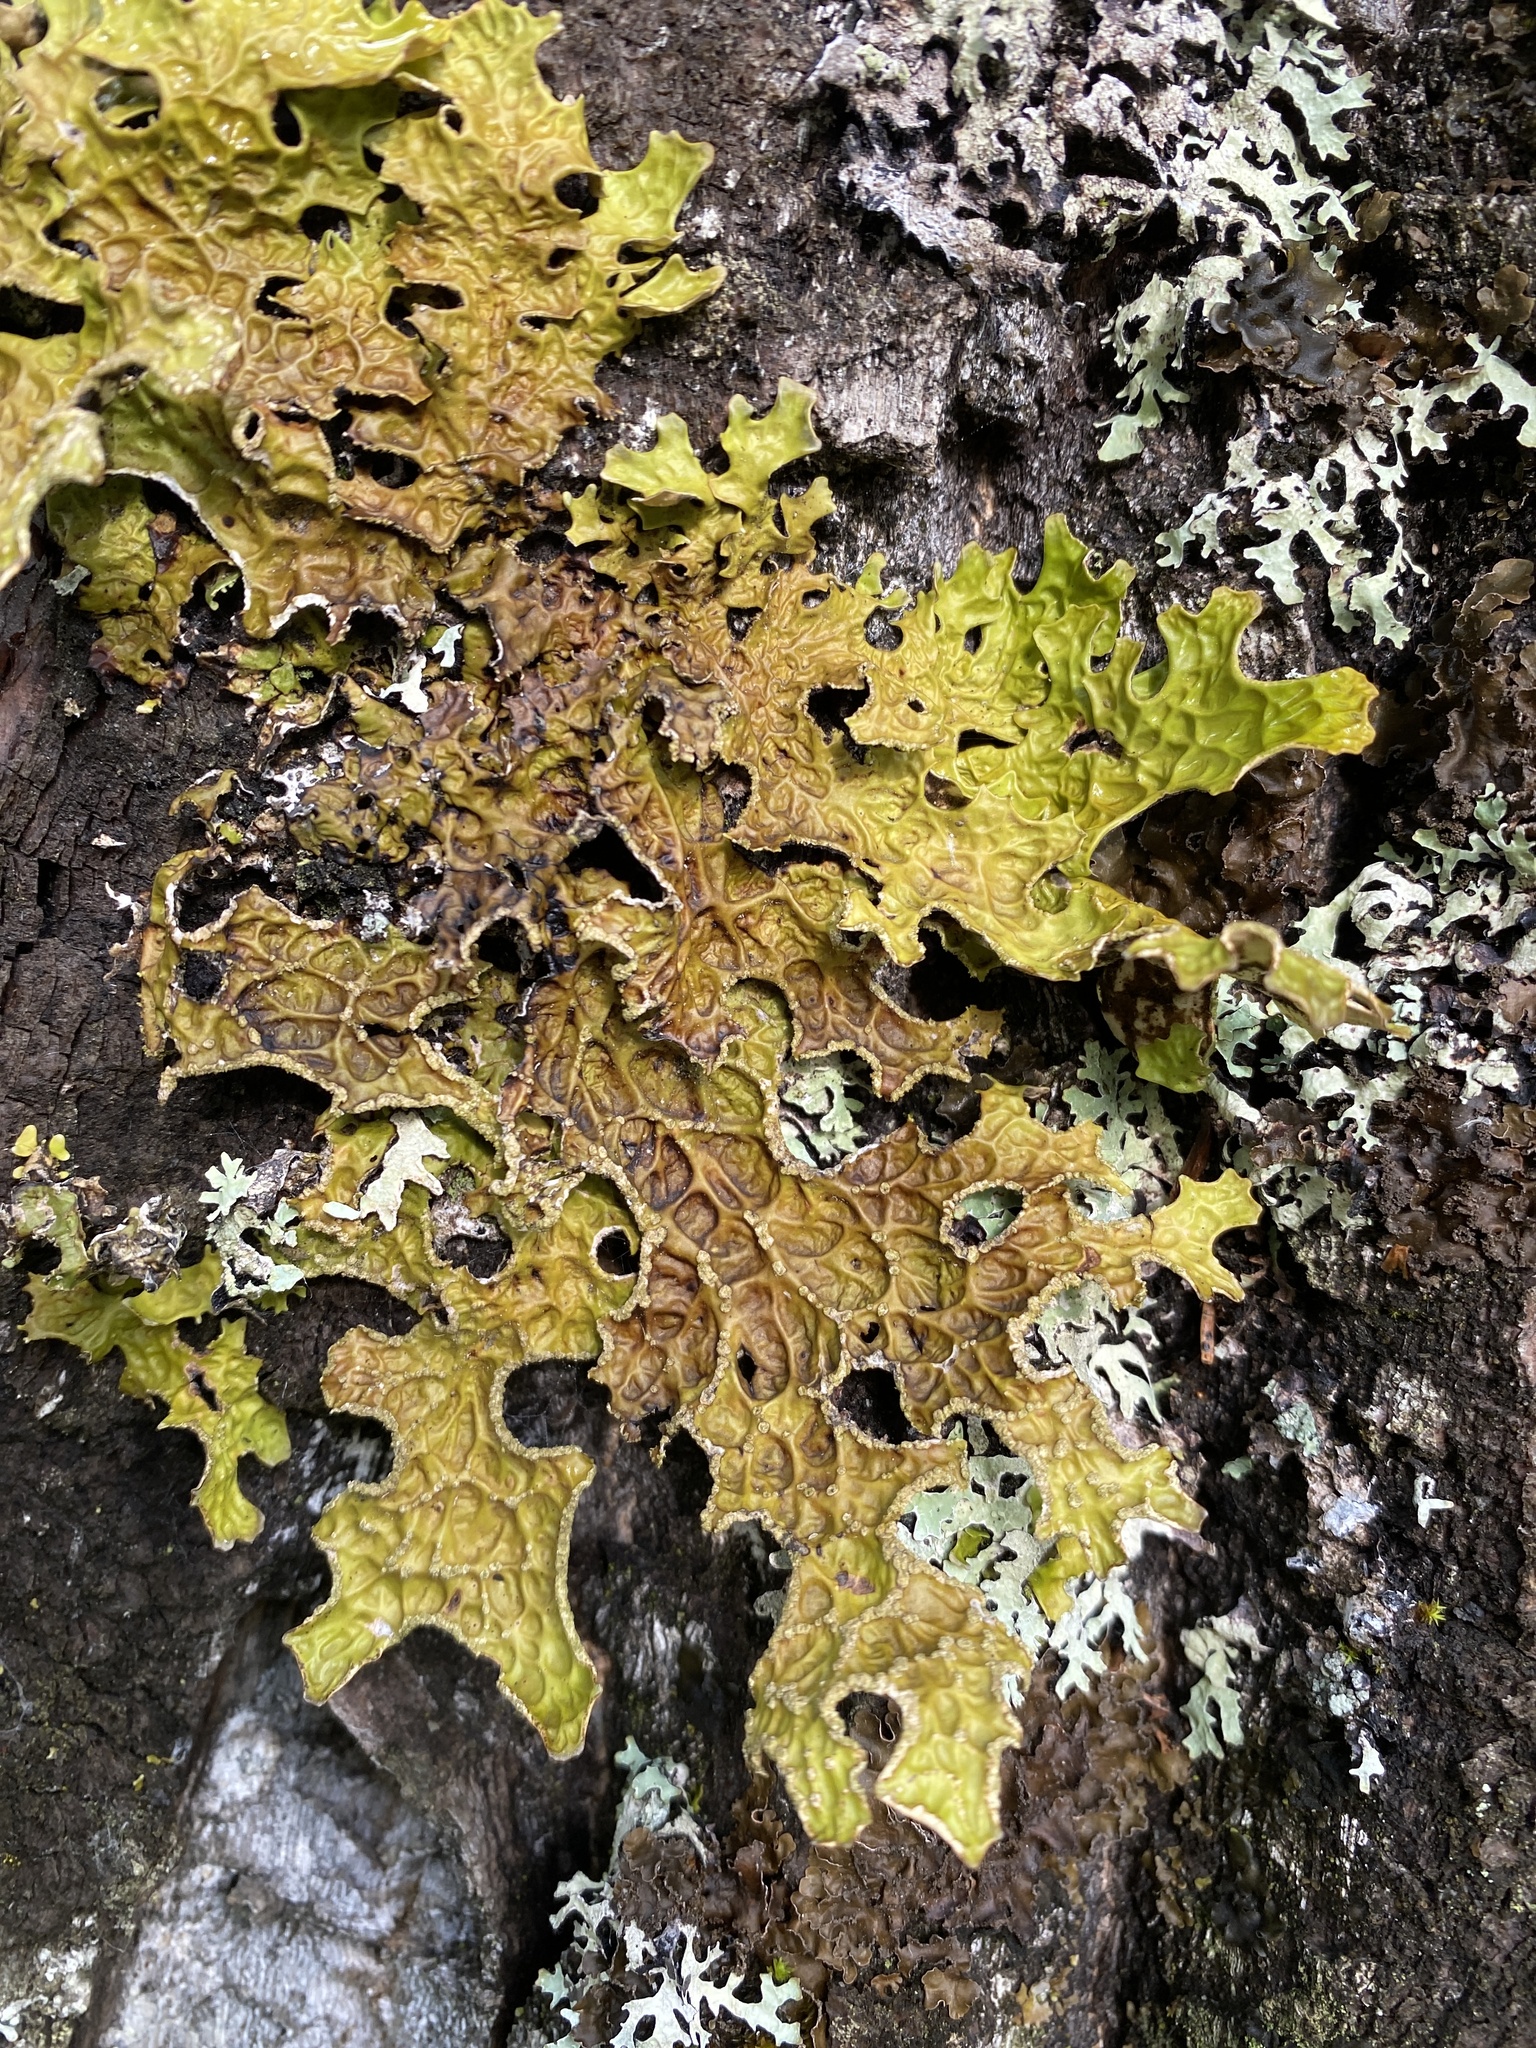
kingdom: Fungi
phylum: Ascomycota
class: Lecanoromycetes
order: Peltigerales
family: Lobariaceae
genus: Lobaria
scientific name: Lobaria pulmonaria
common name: Lungwort
